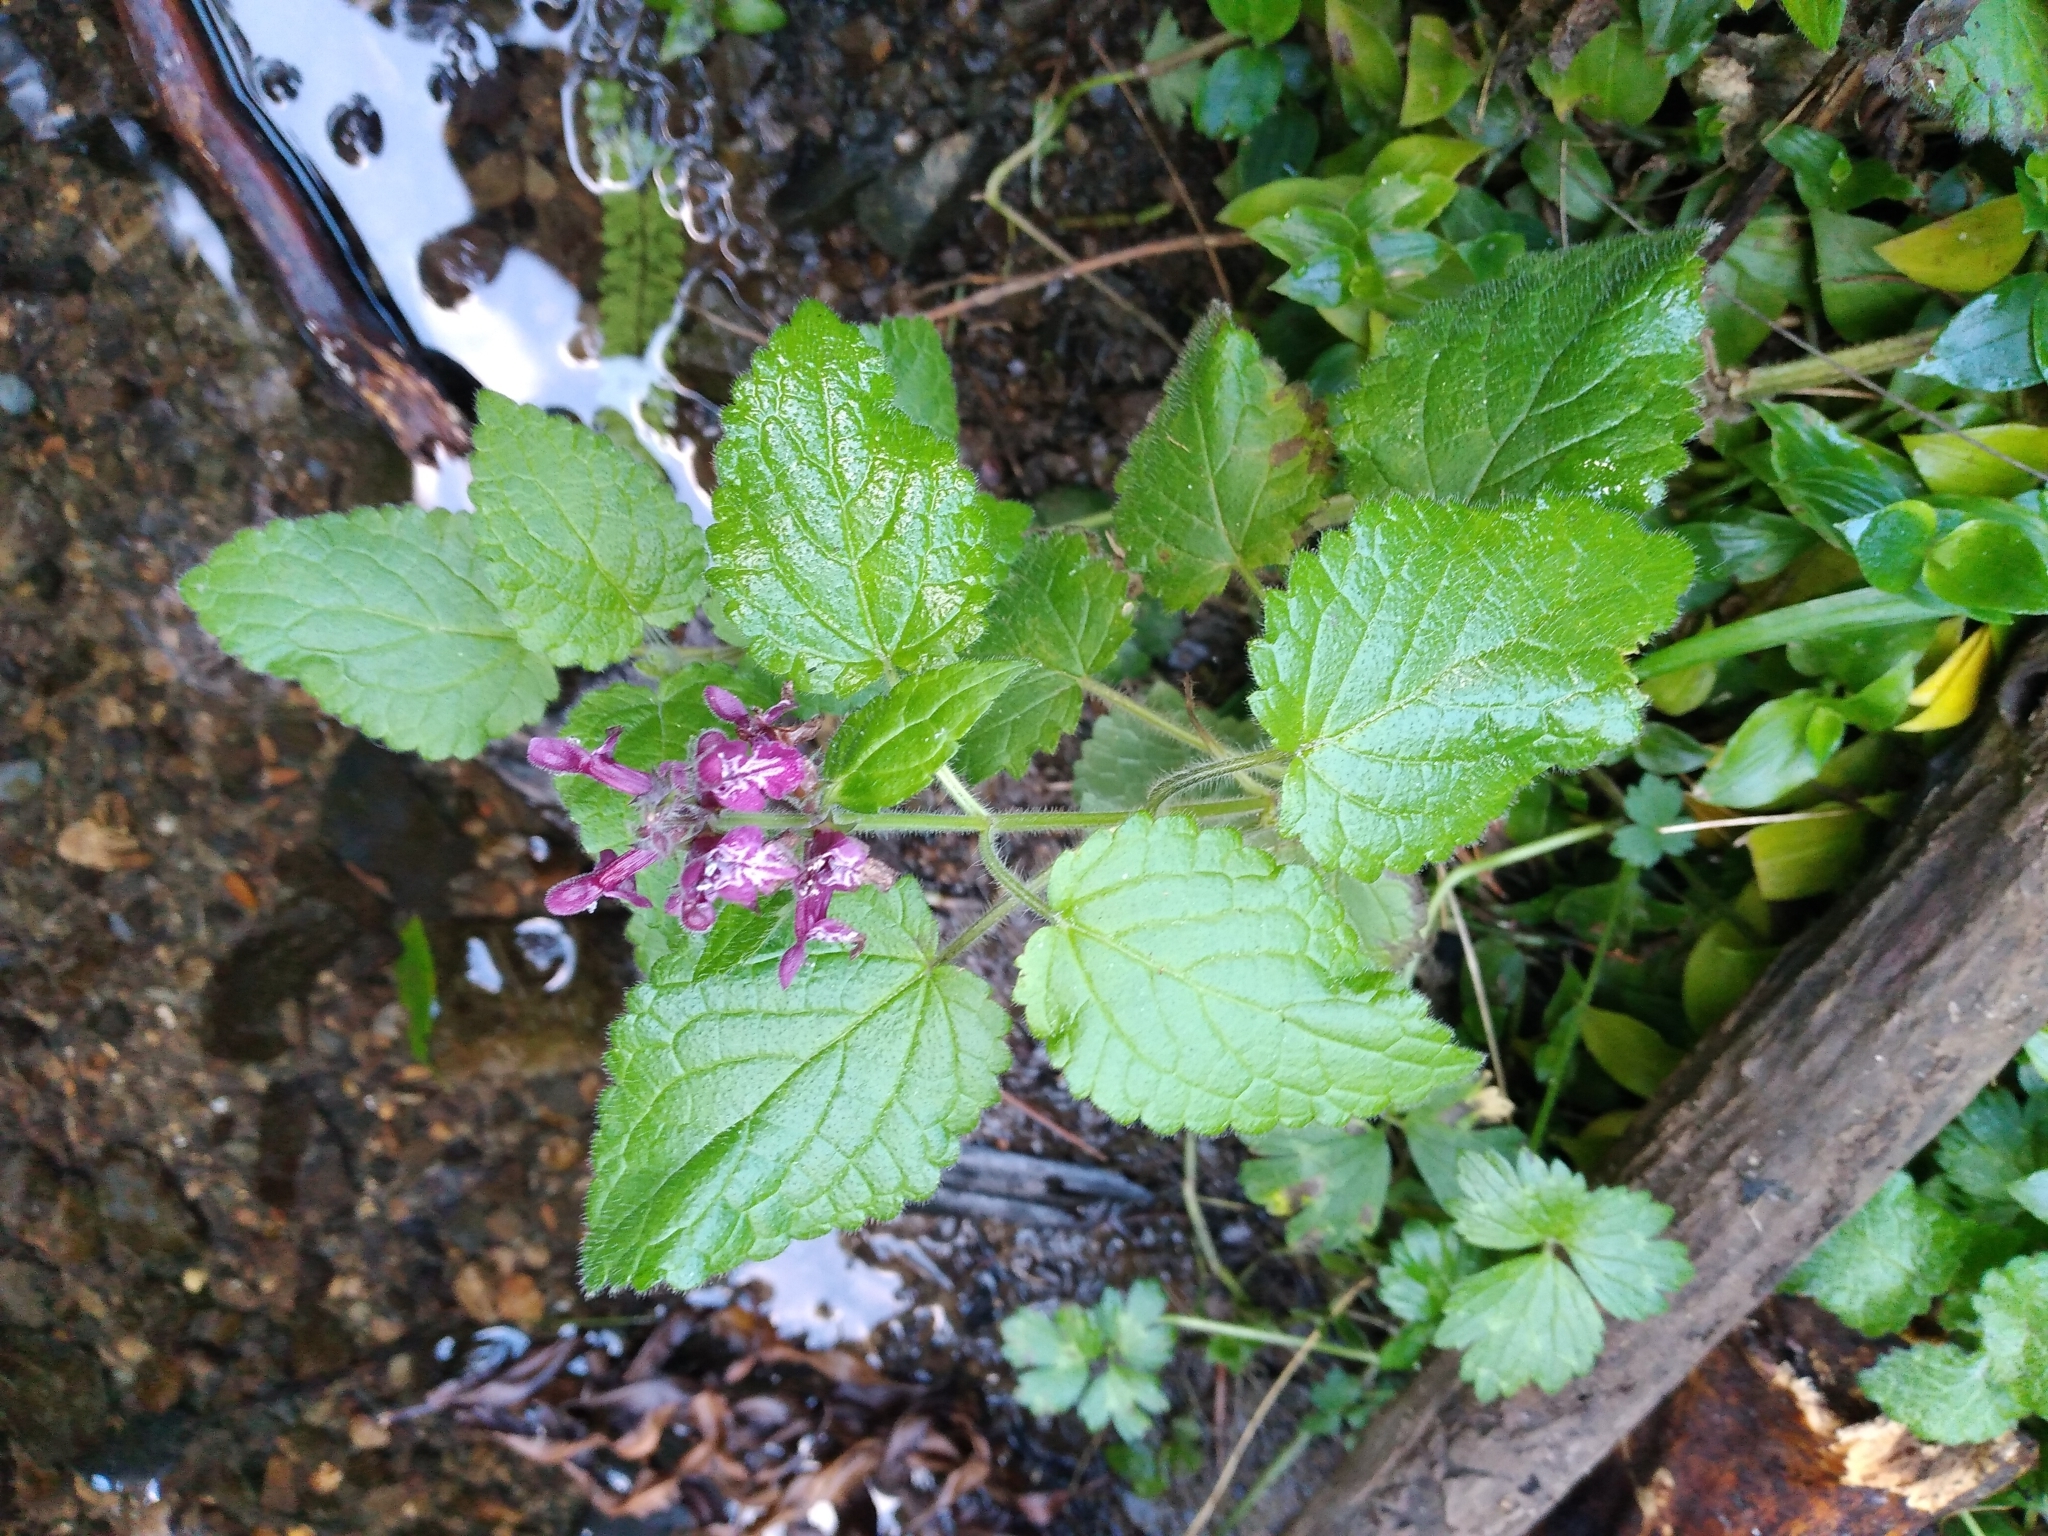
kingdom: Plantae
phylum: Tracheophyta
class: Magnoliopsida
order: Lamiales
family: Lamiaceae
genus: Stachys
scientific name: Stachys sylvatica
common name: Hedge woundwort
